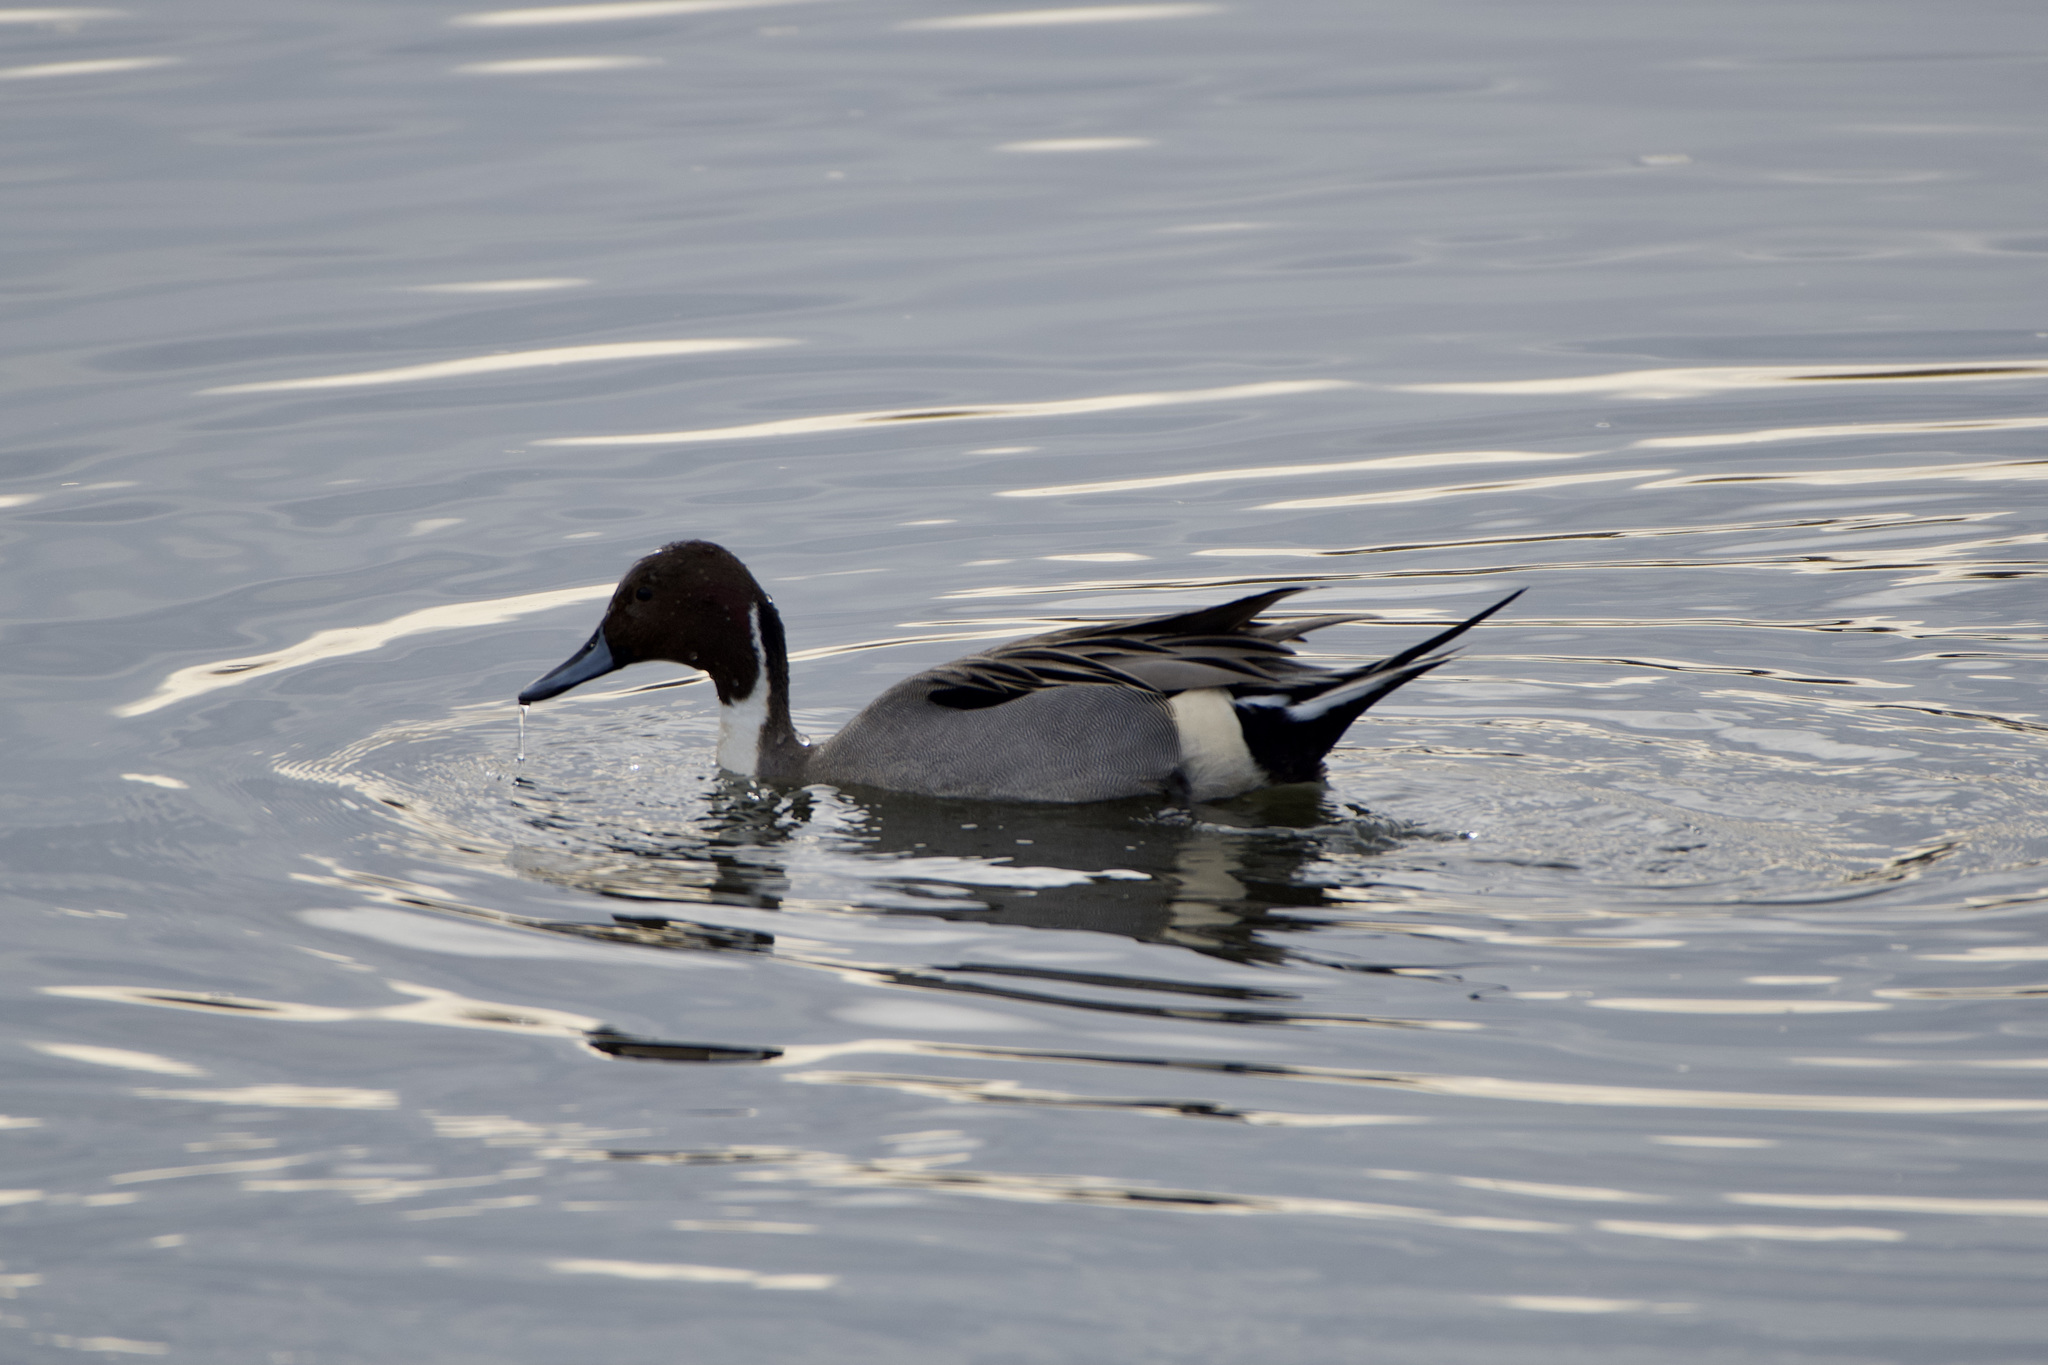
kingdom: Animalia
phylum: Chordata
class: Aves
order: Anseriformes
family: Anatidae
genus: Anas
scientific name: Anas acuta
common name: Northern pintail
